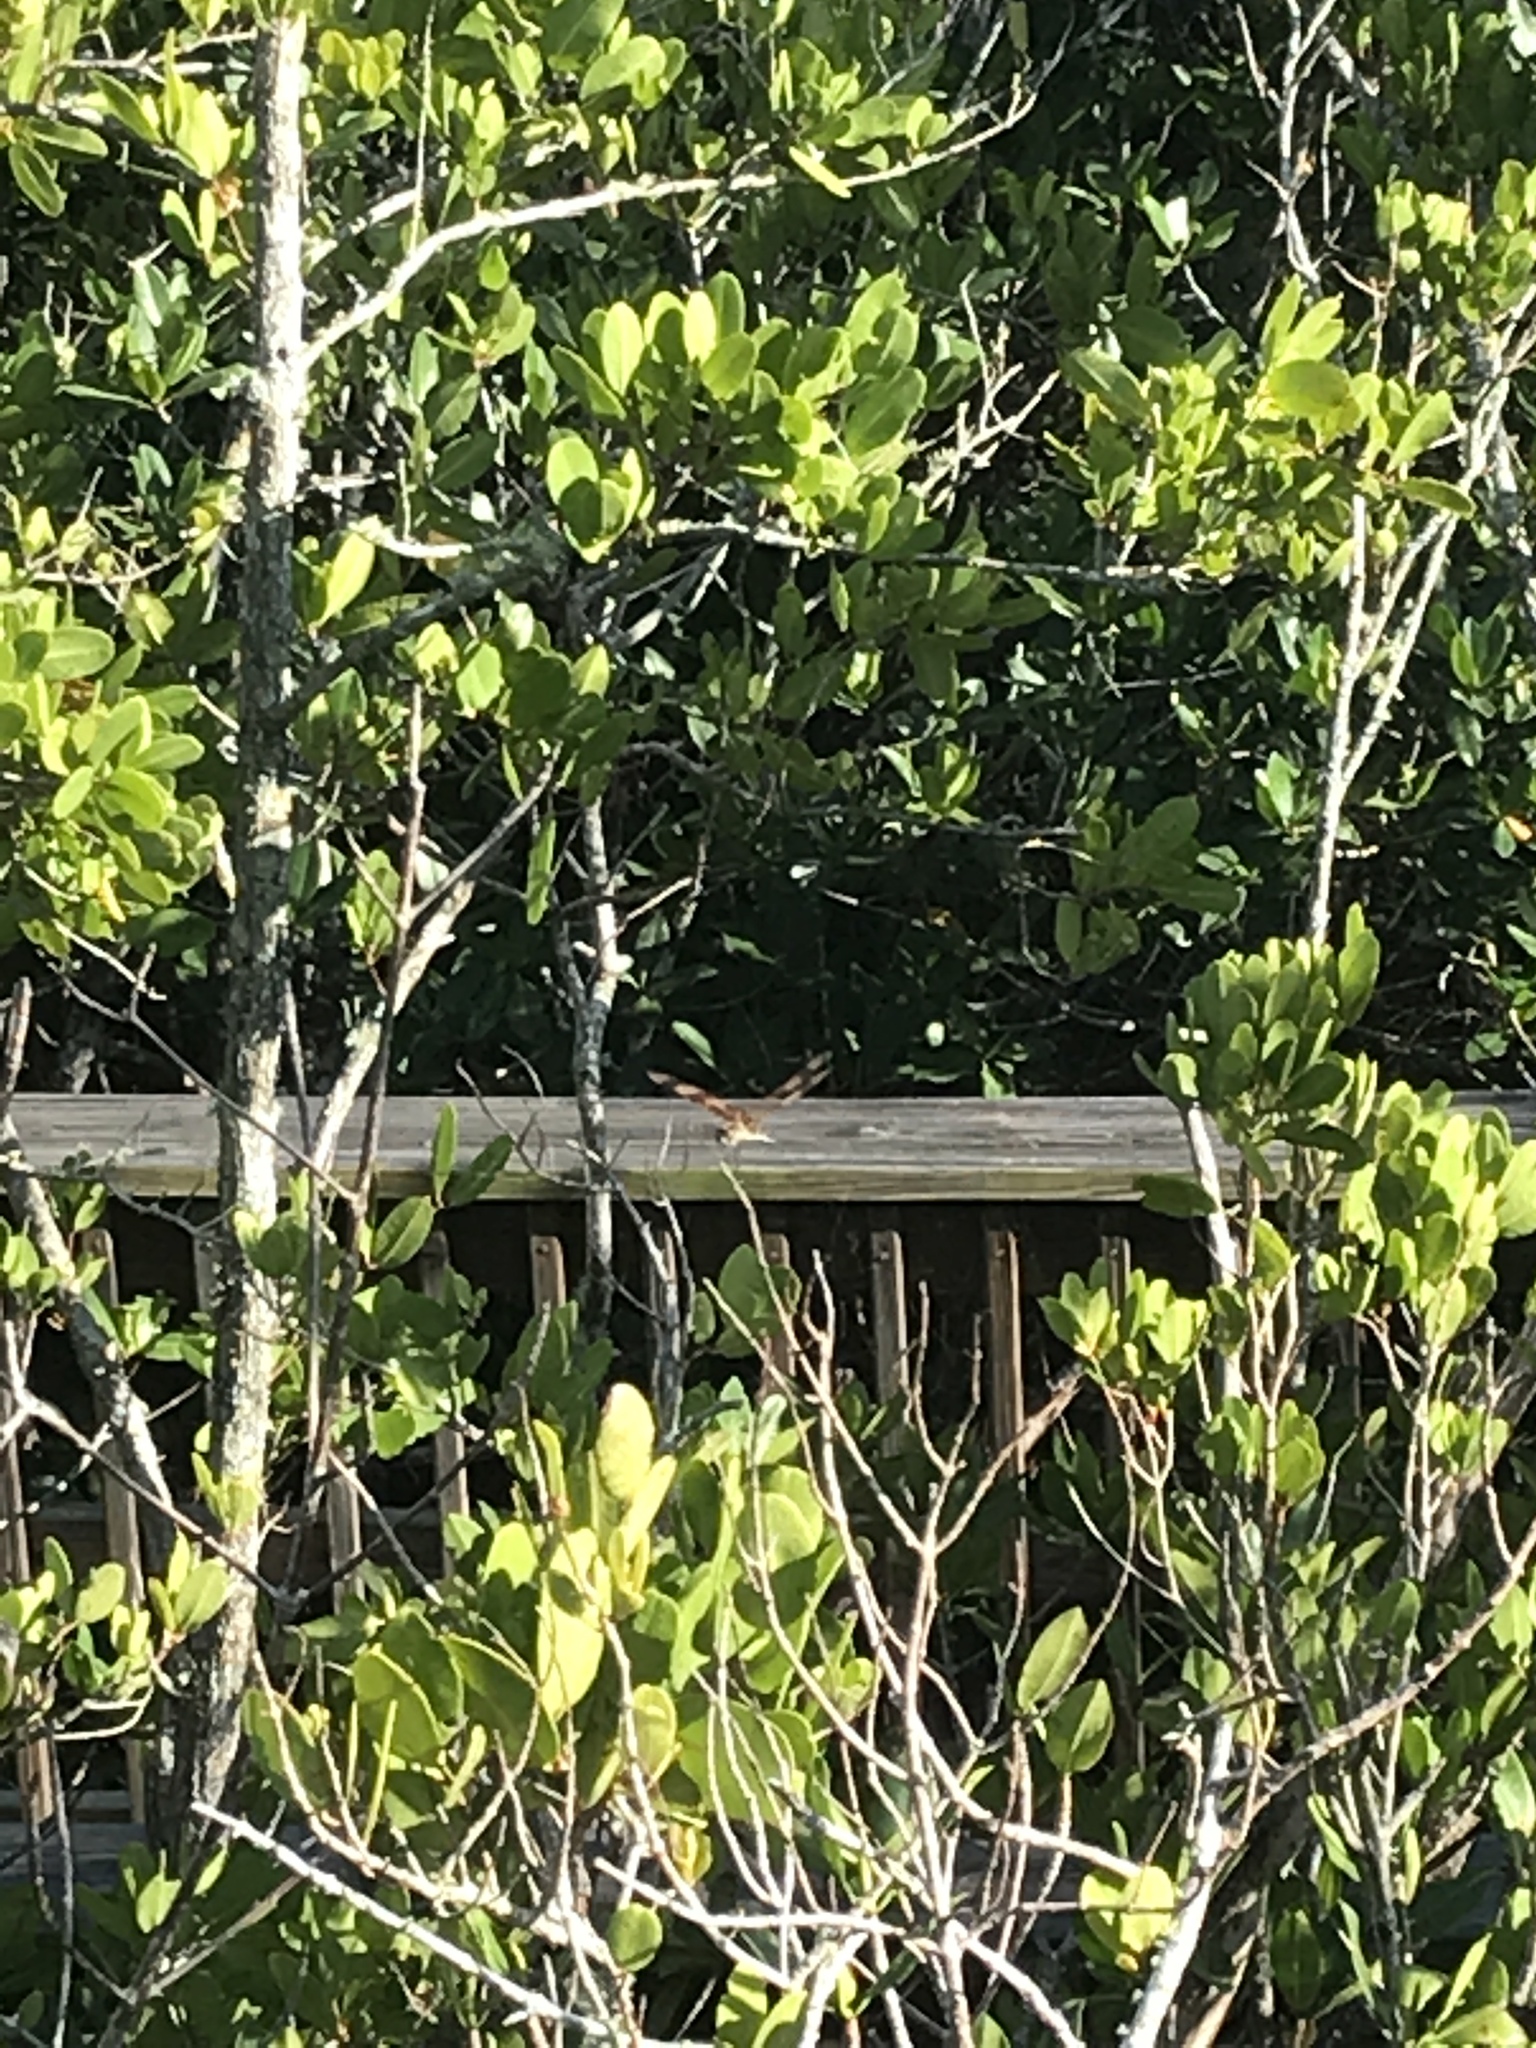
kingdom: Animalia
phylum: Arthropoda
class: Insecta
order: Odonata
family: Libellulidae
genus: Celithemis
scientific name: Celithemis eponina
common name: Halloween pennant
